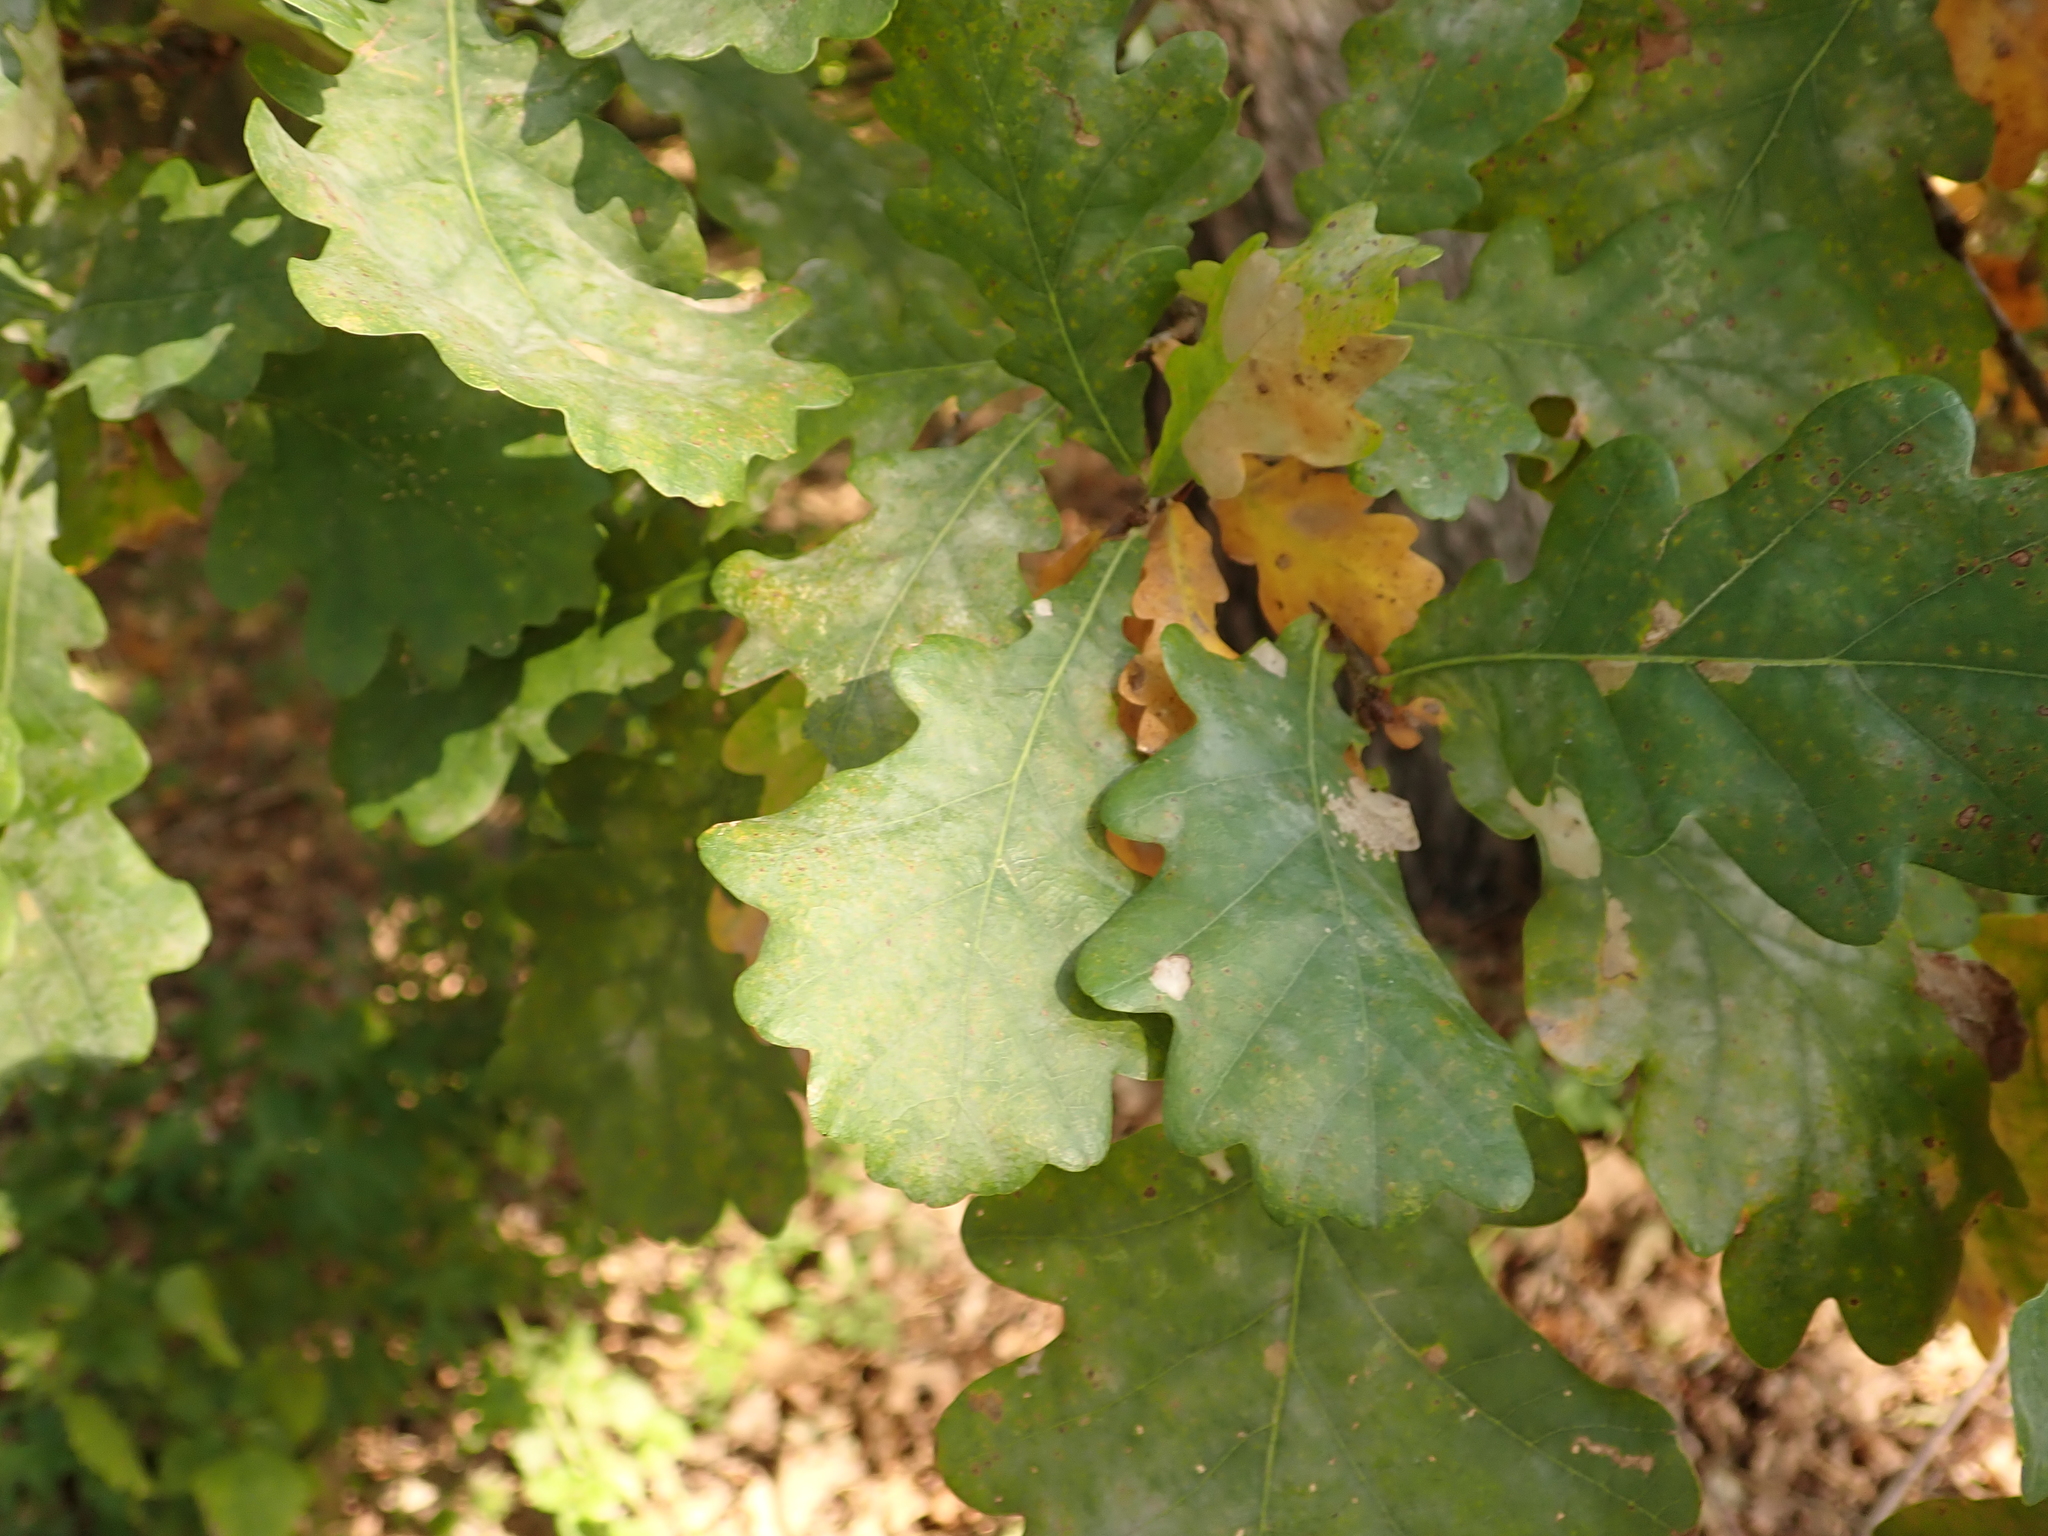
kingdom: Plantae
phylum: Tracheophyta
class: Magnoliopsida
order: Fagales
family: Fagaceae
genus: Quercus
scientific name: Quercus robur
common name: Pedunculate oak
